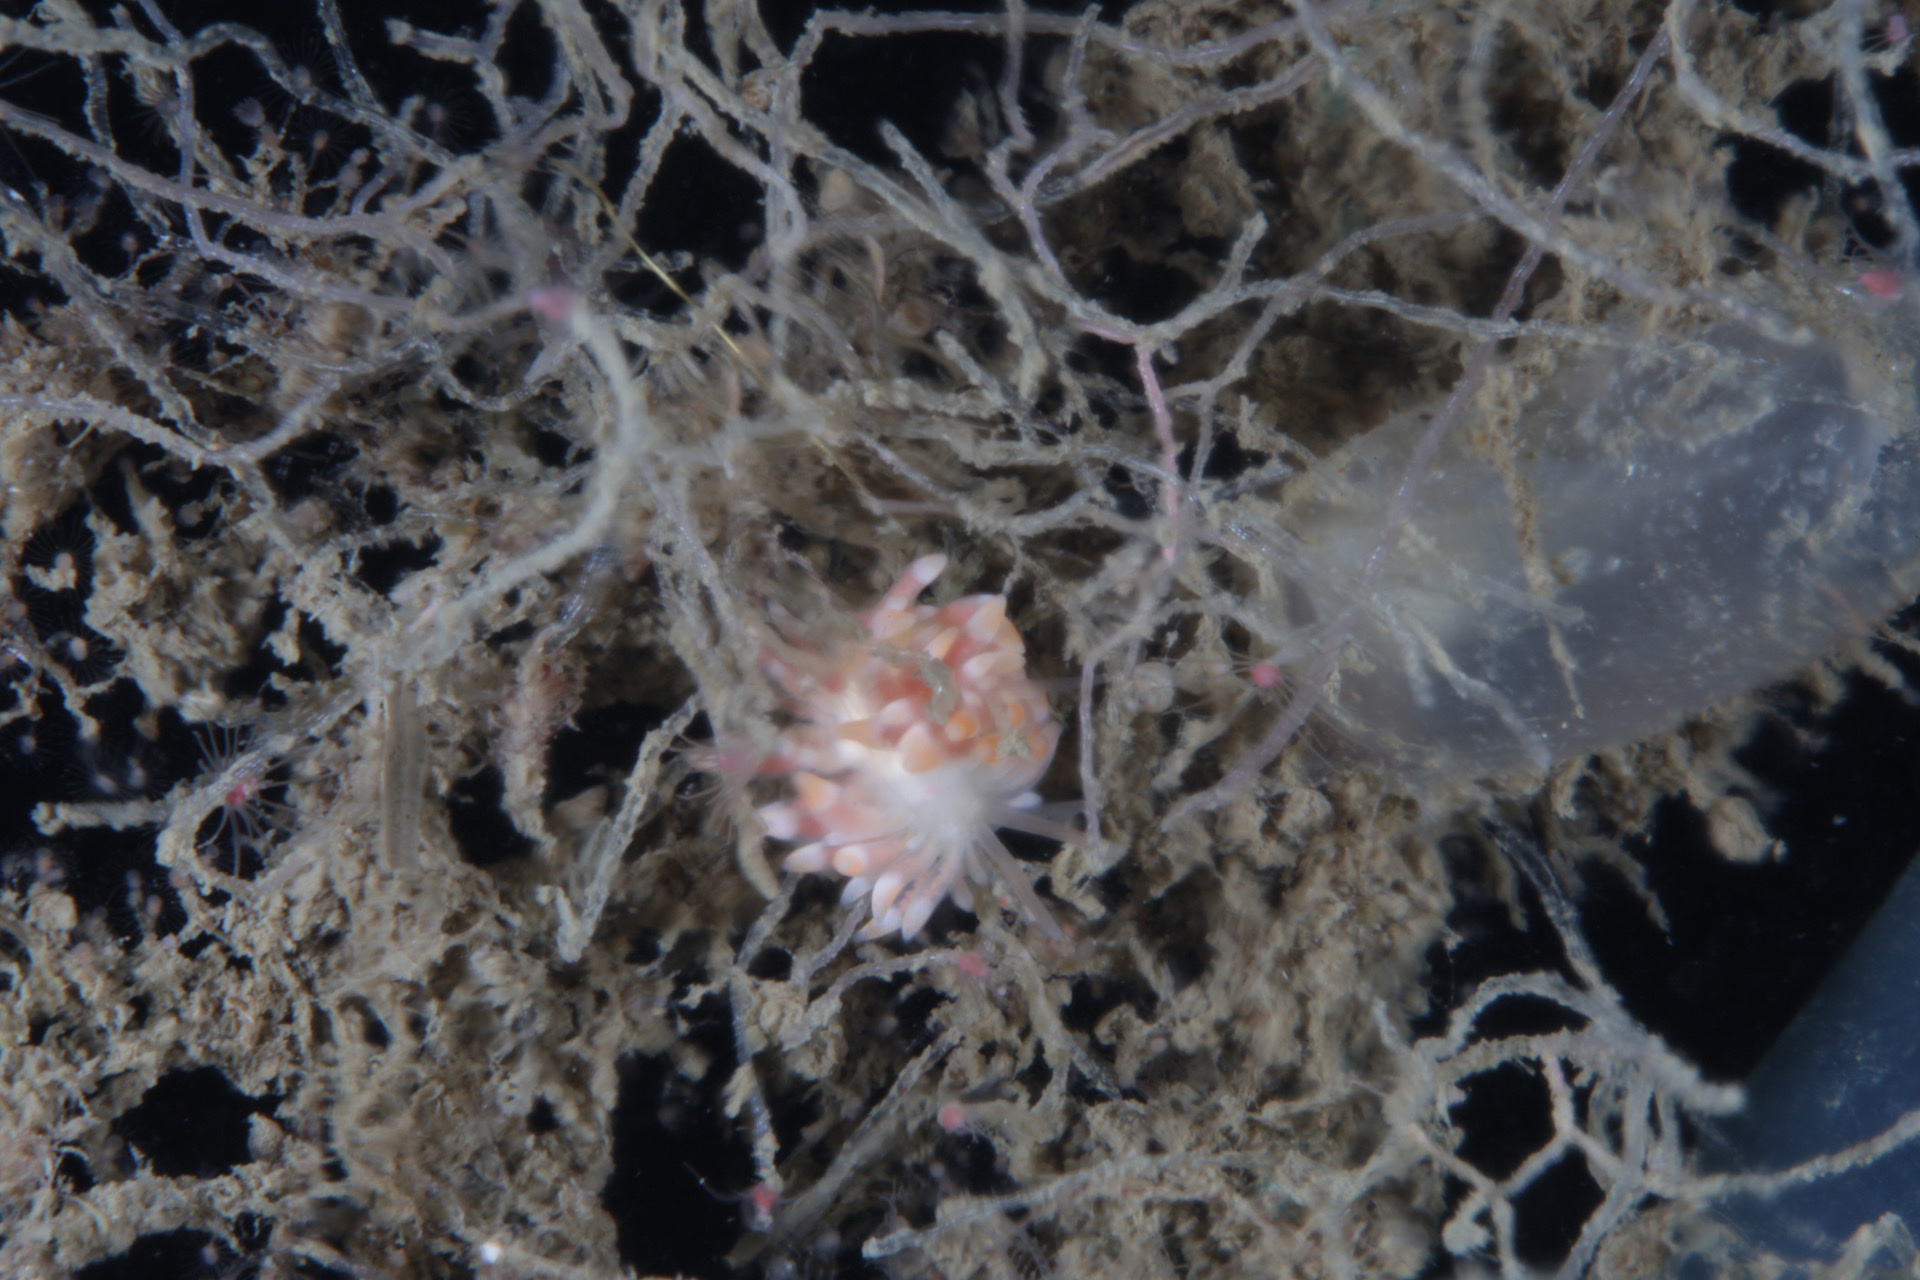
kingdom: Animalia
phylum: Mollusca
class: Gastropoda
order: Nudibranchia
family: Trinchesiidae
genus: Catriona
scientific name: Catriona aurantia
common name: Corange-tip cuthona
